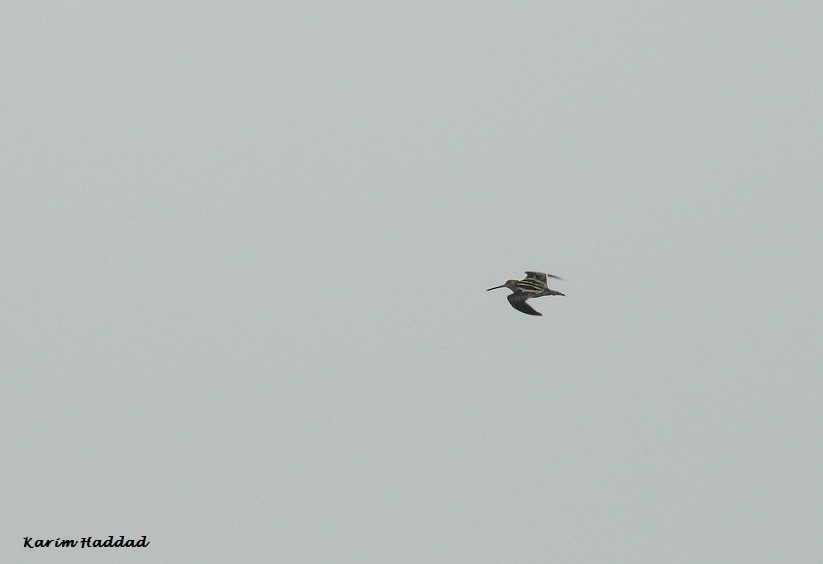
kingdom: Animalia
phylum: Chordata
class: Aves
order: Charadriiformes
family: Scolopacidae
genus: Gallinago
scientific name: Gallinago gallinago
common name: Common snipe
